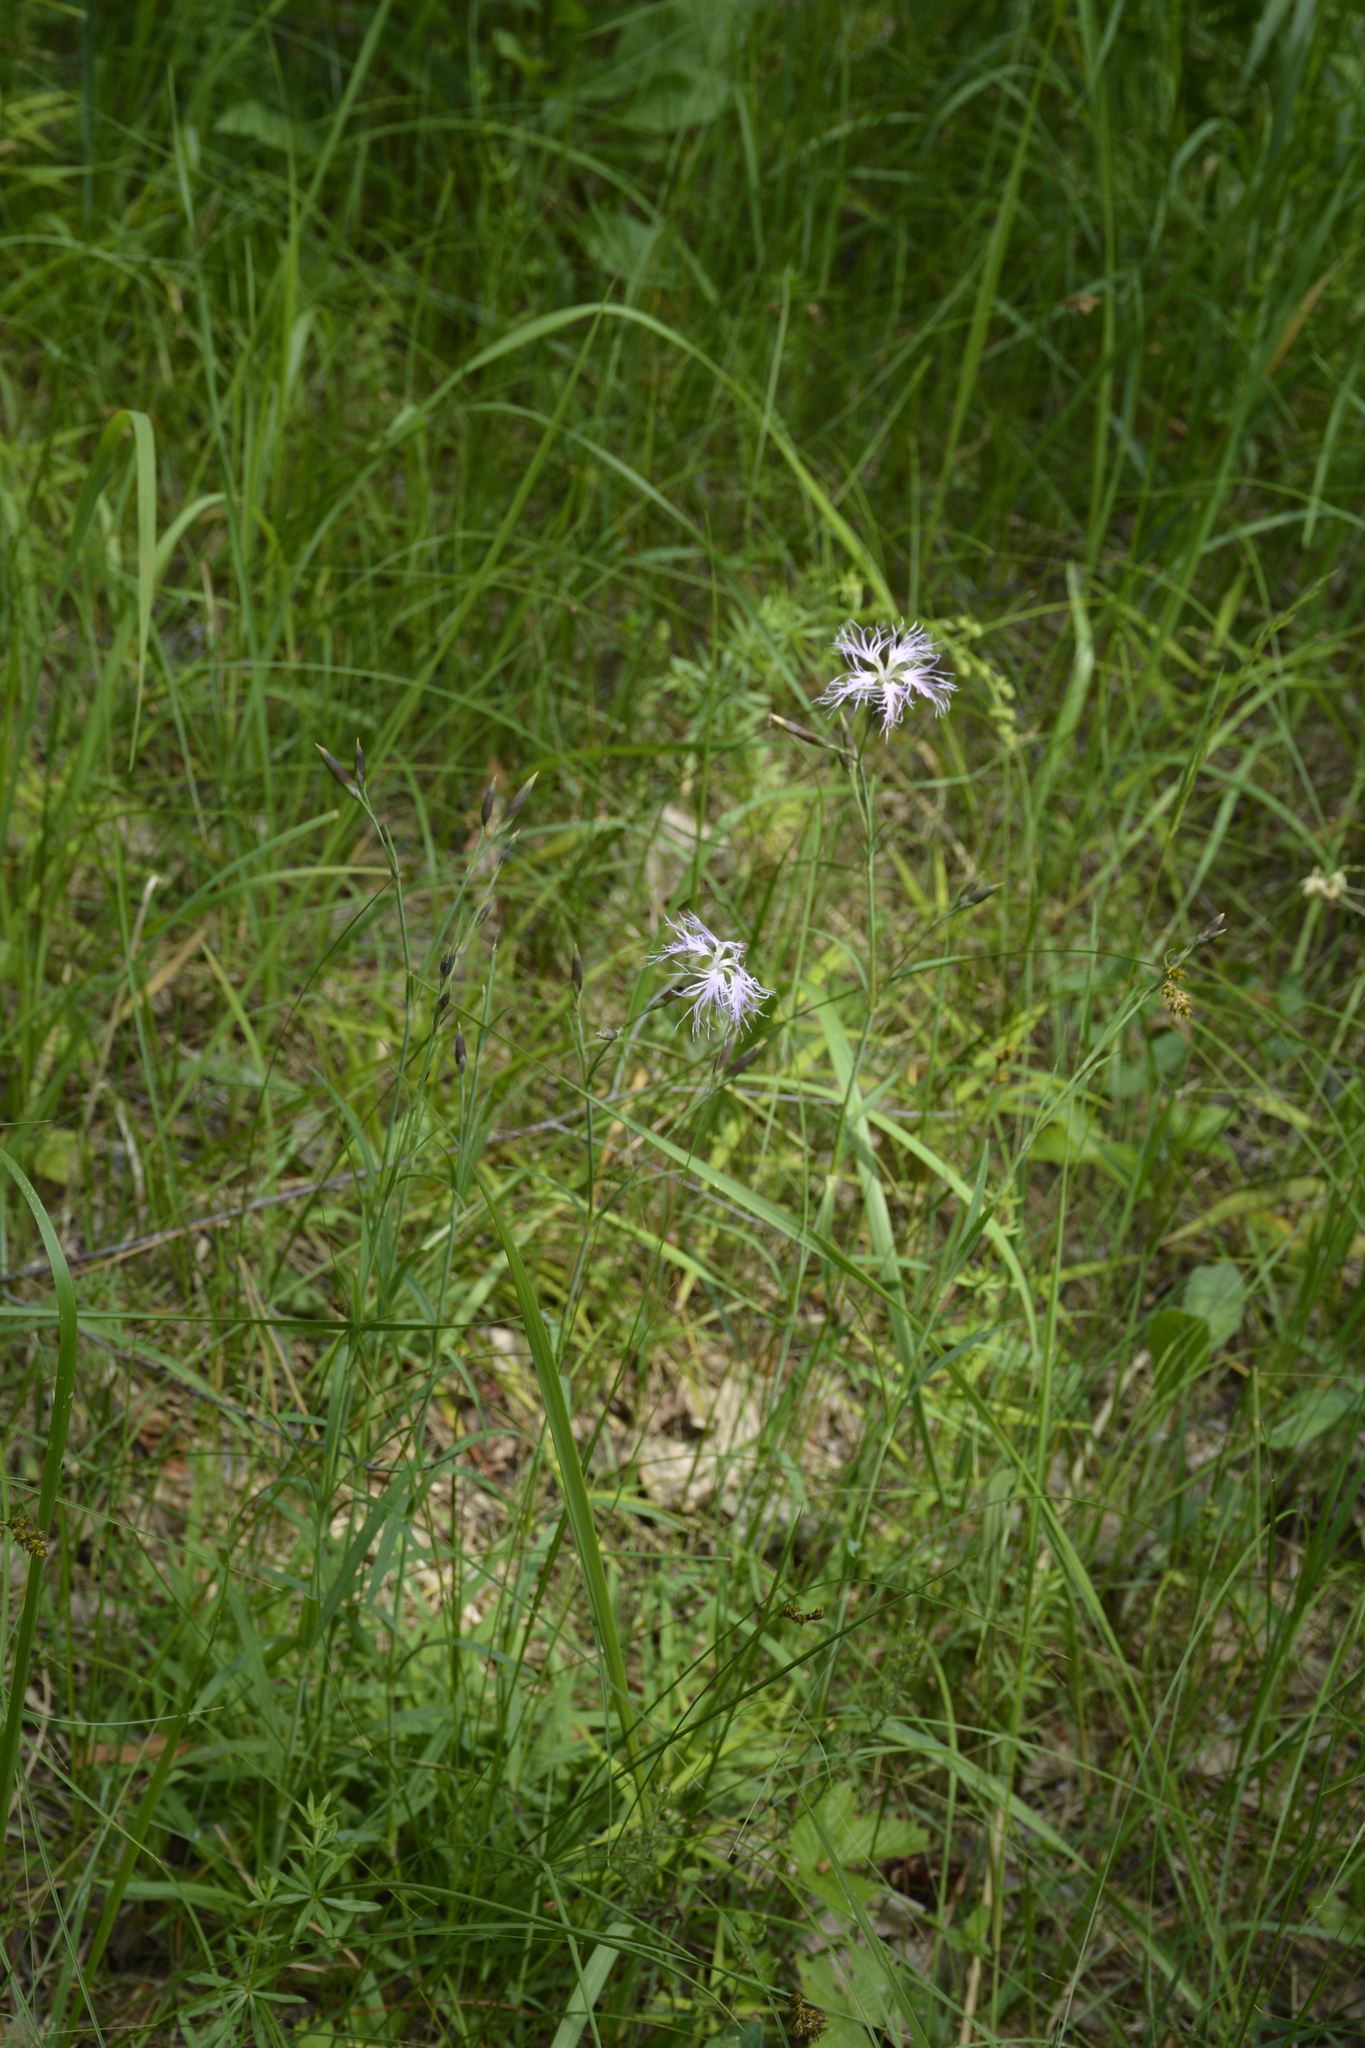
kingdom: Plantae
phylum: Tracheophyta
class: Magnoliopsida
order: Caryophyllales
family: Caryophyllaceae
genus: Dianthus
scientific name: Dianthus superbus
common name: Fringed pink
